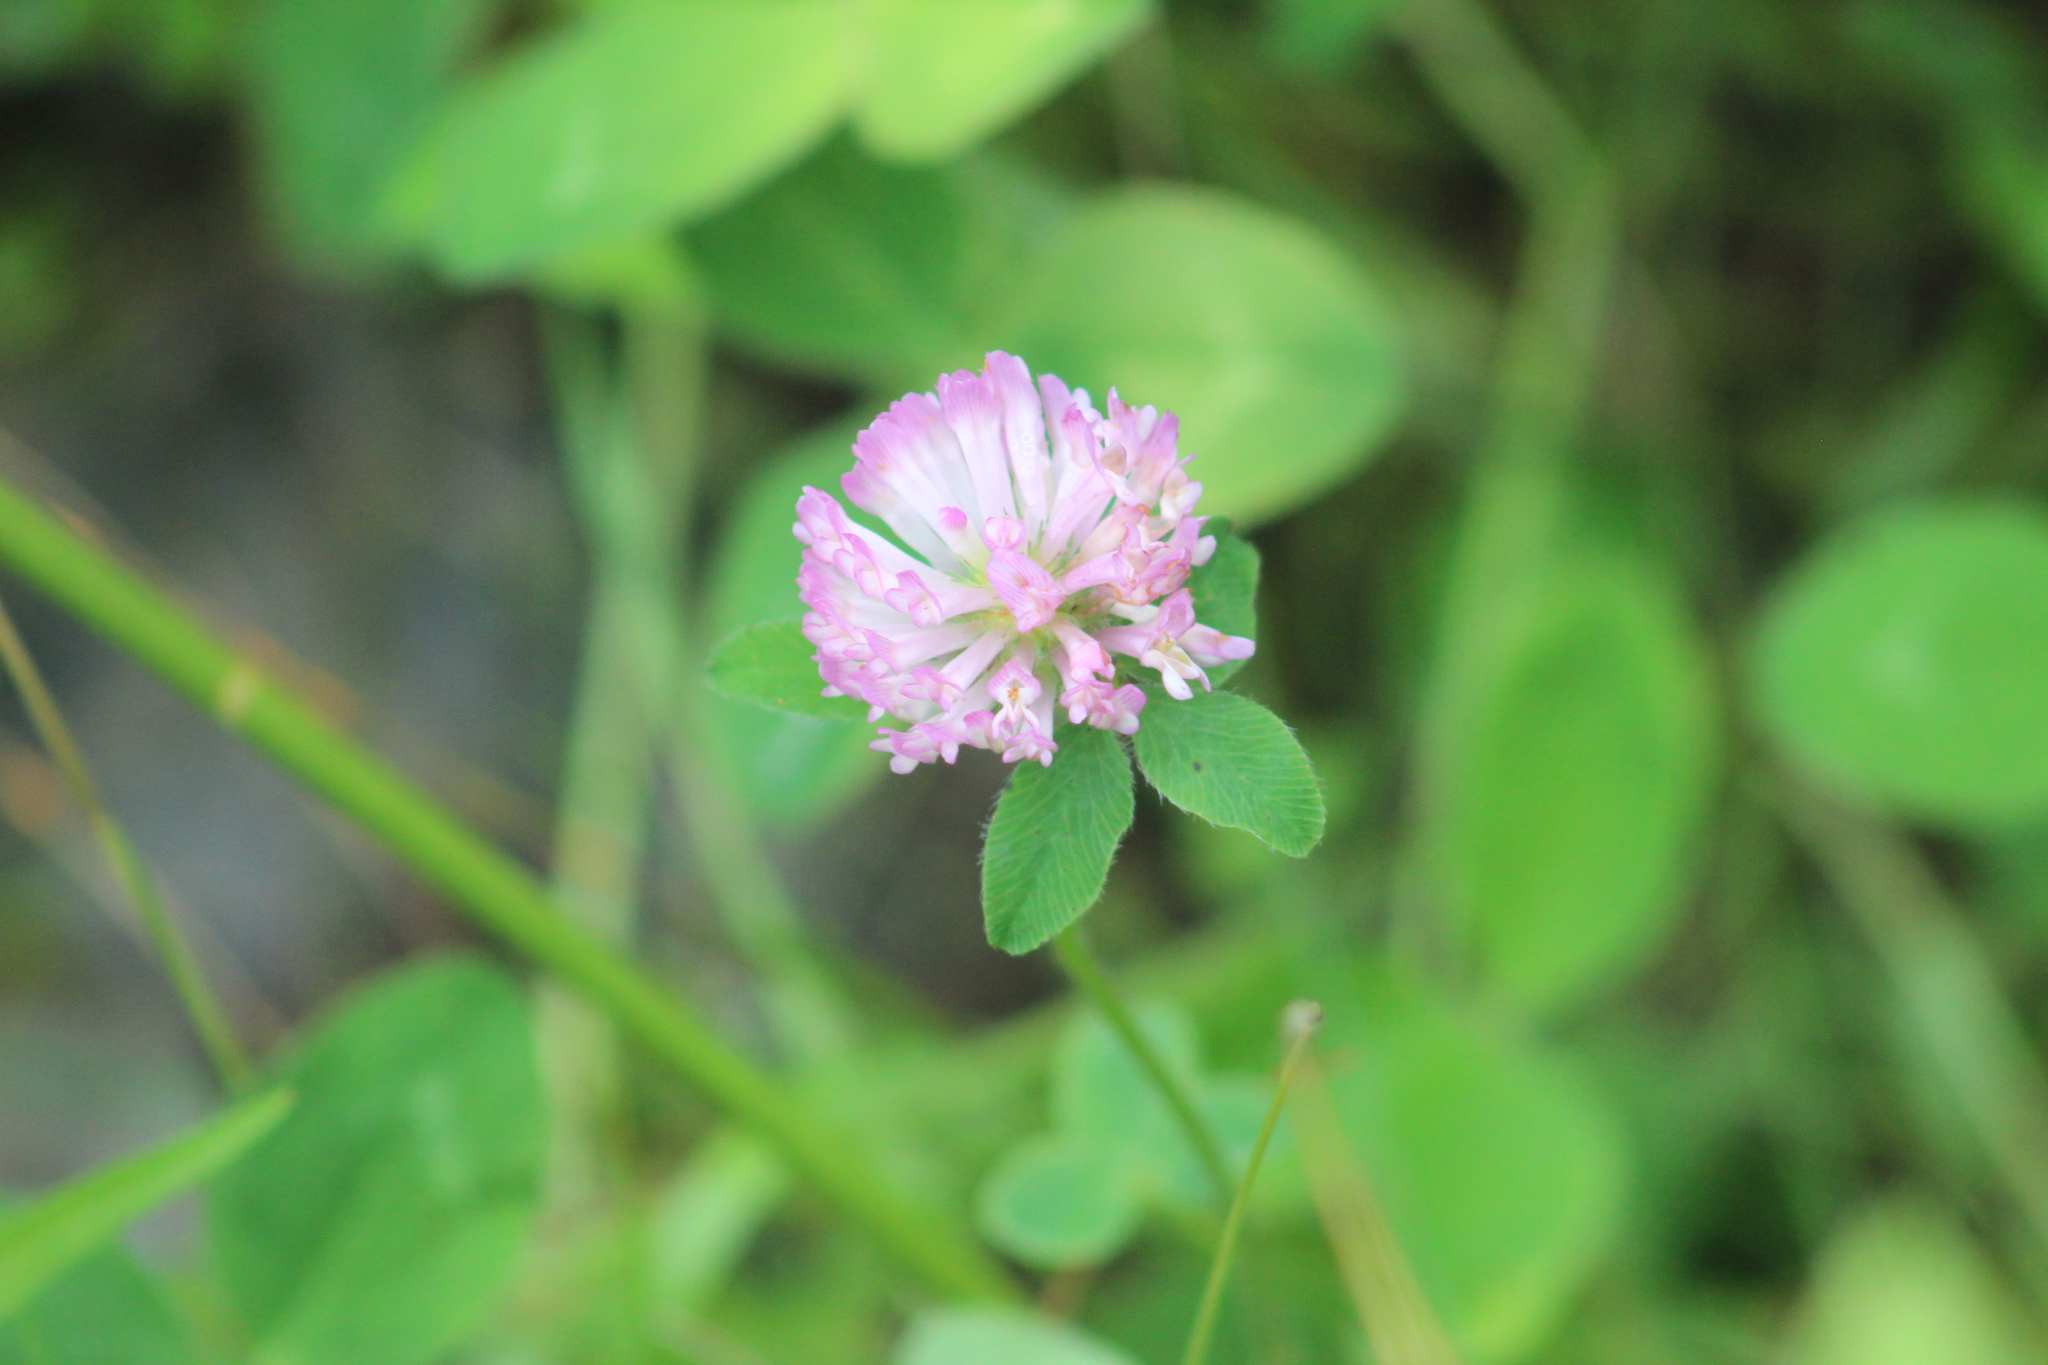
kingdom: Plantae
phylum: Tracheophyta
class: Magnoliopsida
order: Fabales
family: Fabaceae
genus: Trifolium
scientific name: Trifolium pratense
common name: Red clover
